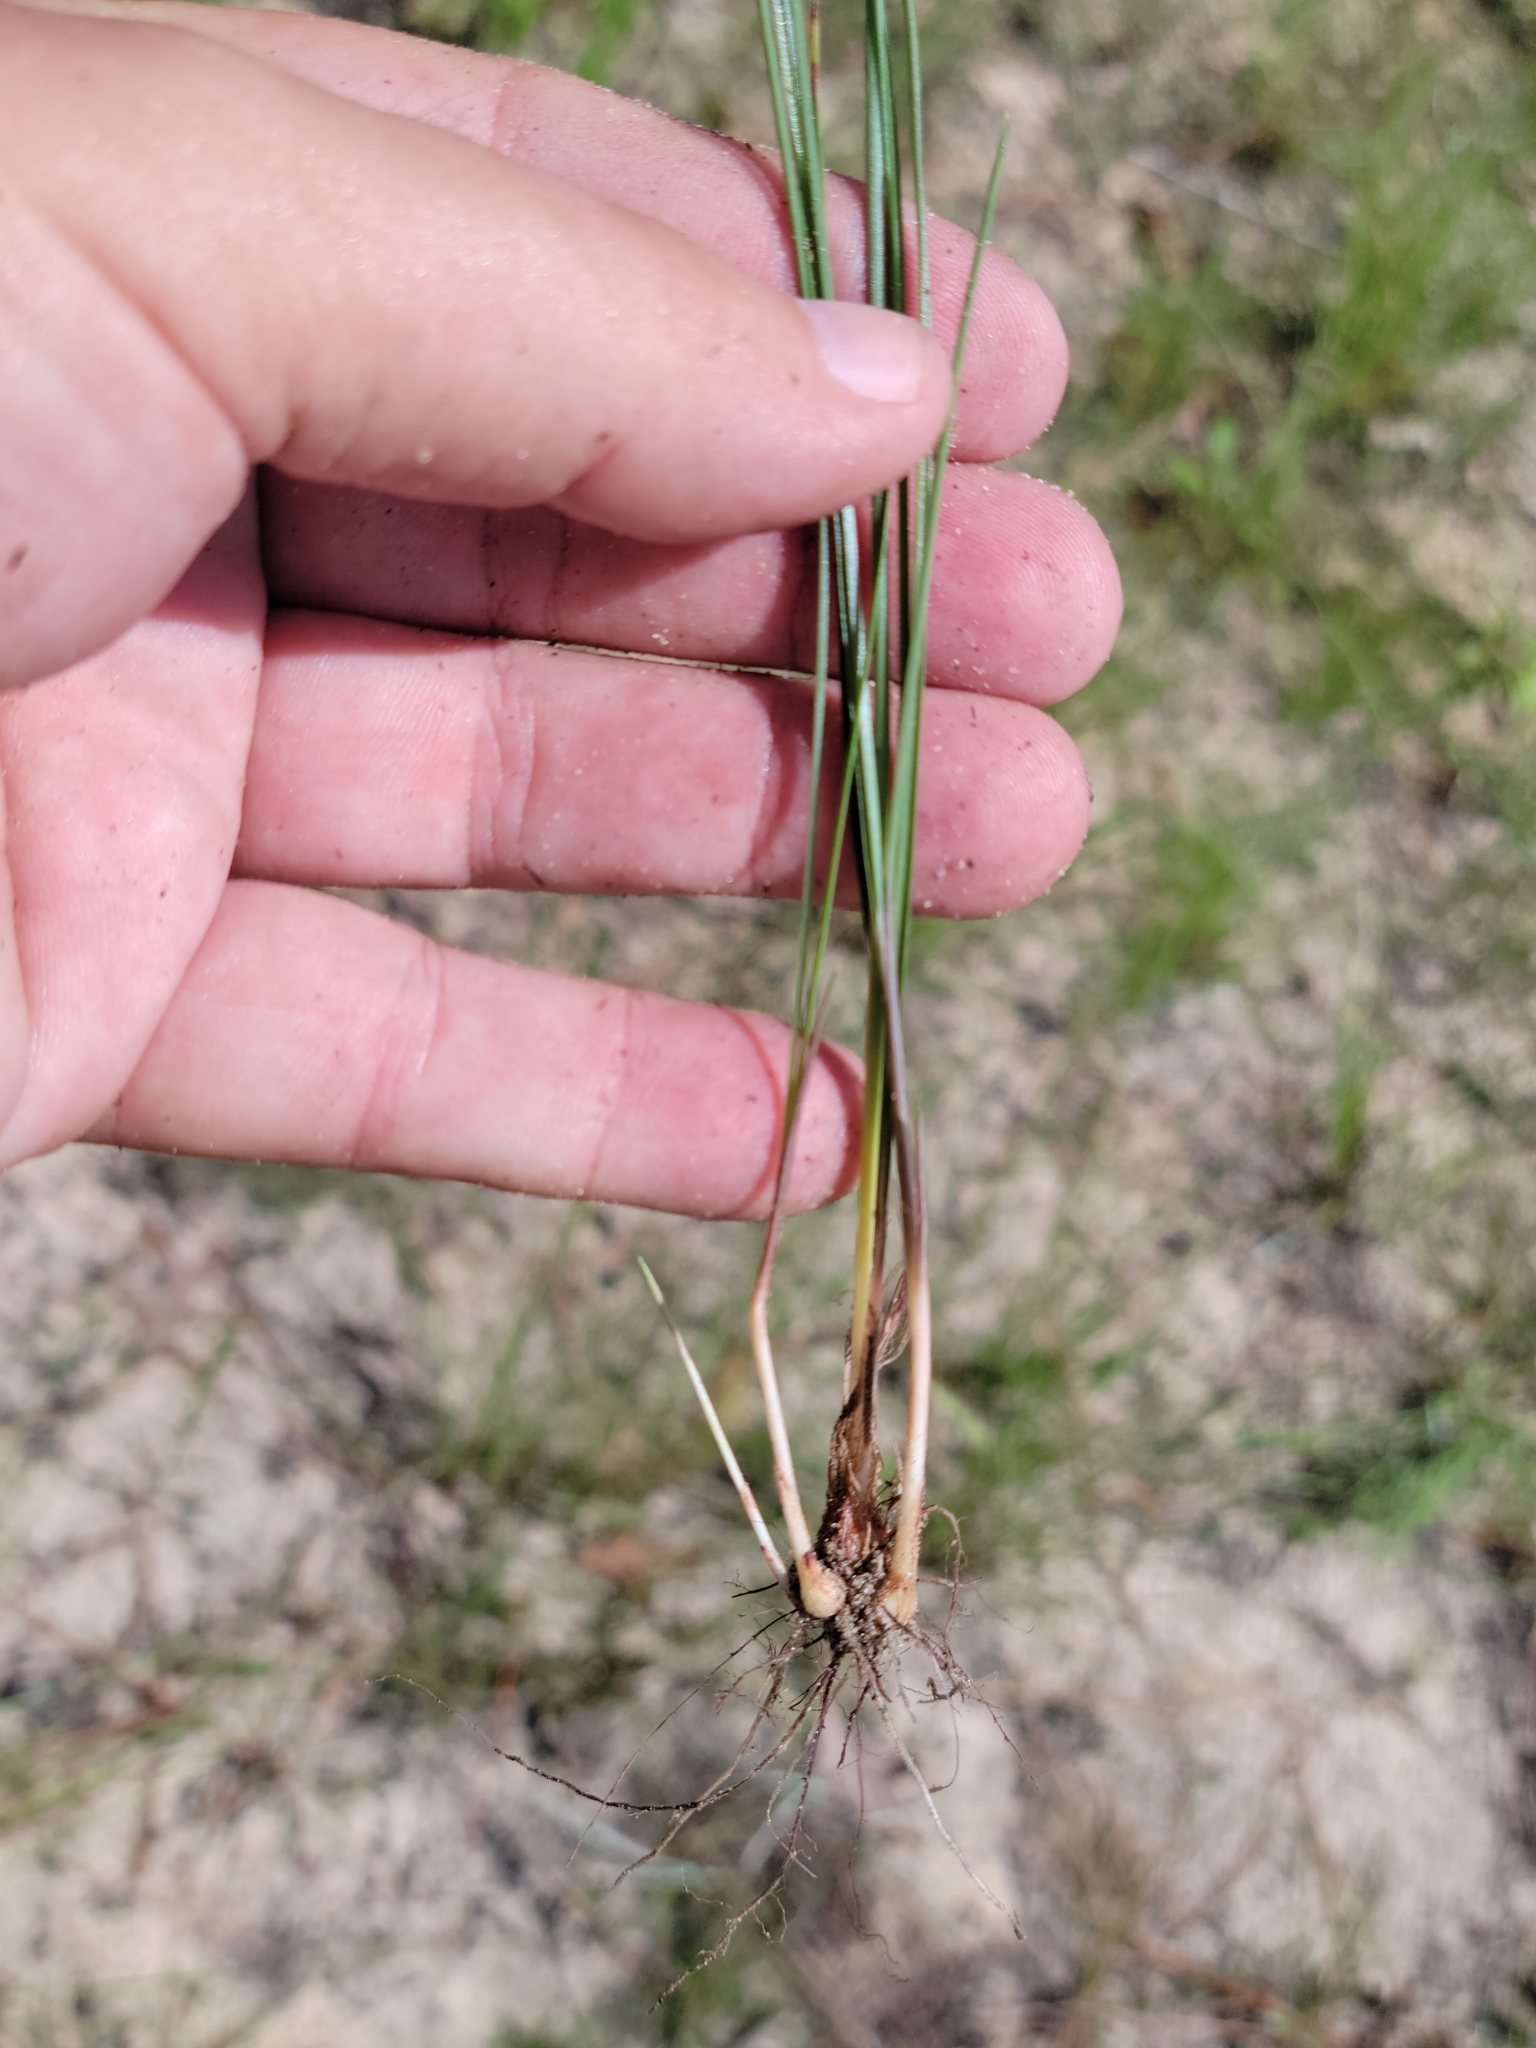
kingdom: Plantae
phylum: Tracheophyta
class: Liliopsida
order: Poales
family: Cyperaceae
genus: Cyperus
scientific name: Cyperus filiculmis
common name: Slender sand sedge
